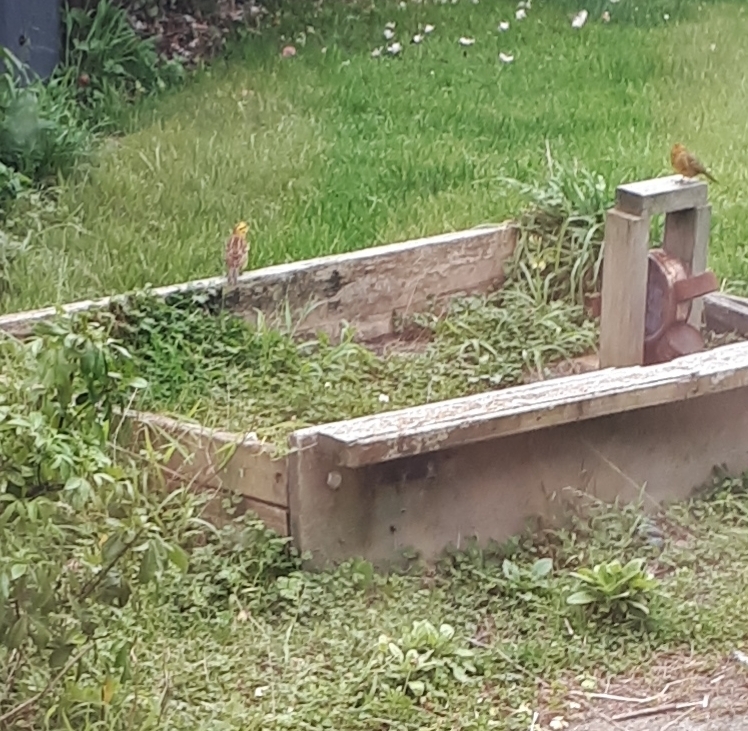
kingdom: Animalia
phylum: Chordata
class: Aves
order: Passeriformes
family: Emberizidae
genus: Emberiza
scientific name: Emberiza citrinella
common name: Yellowhammer
